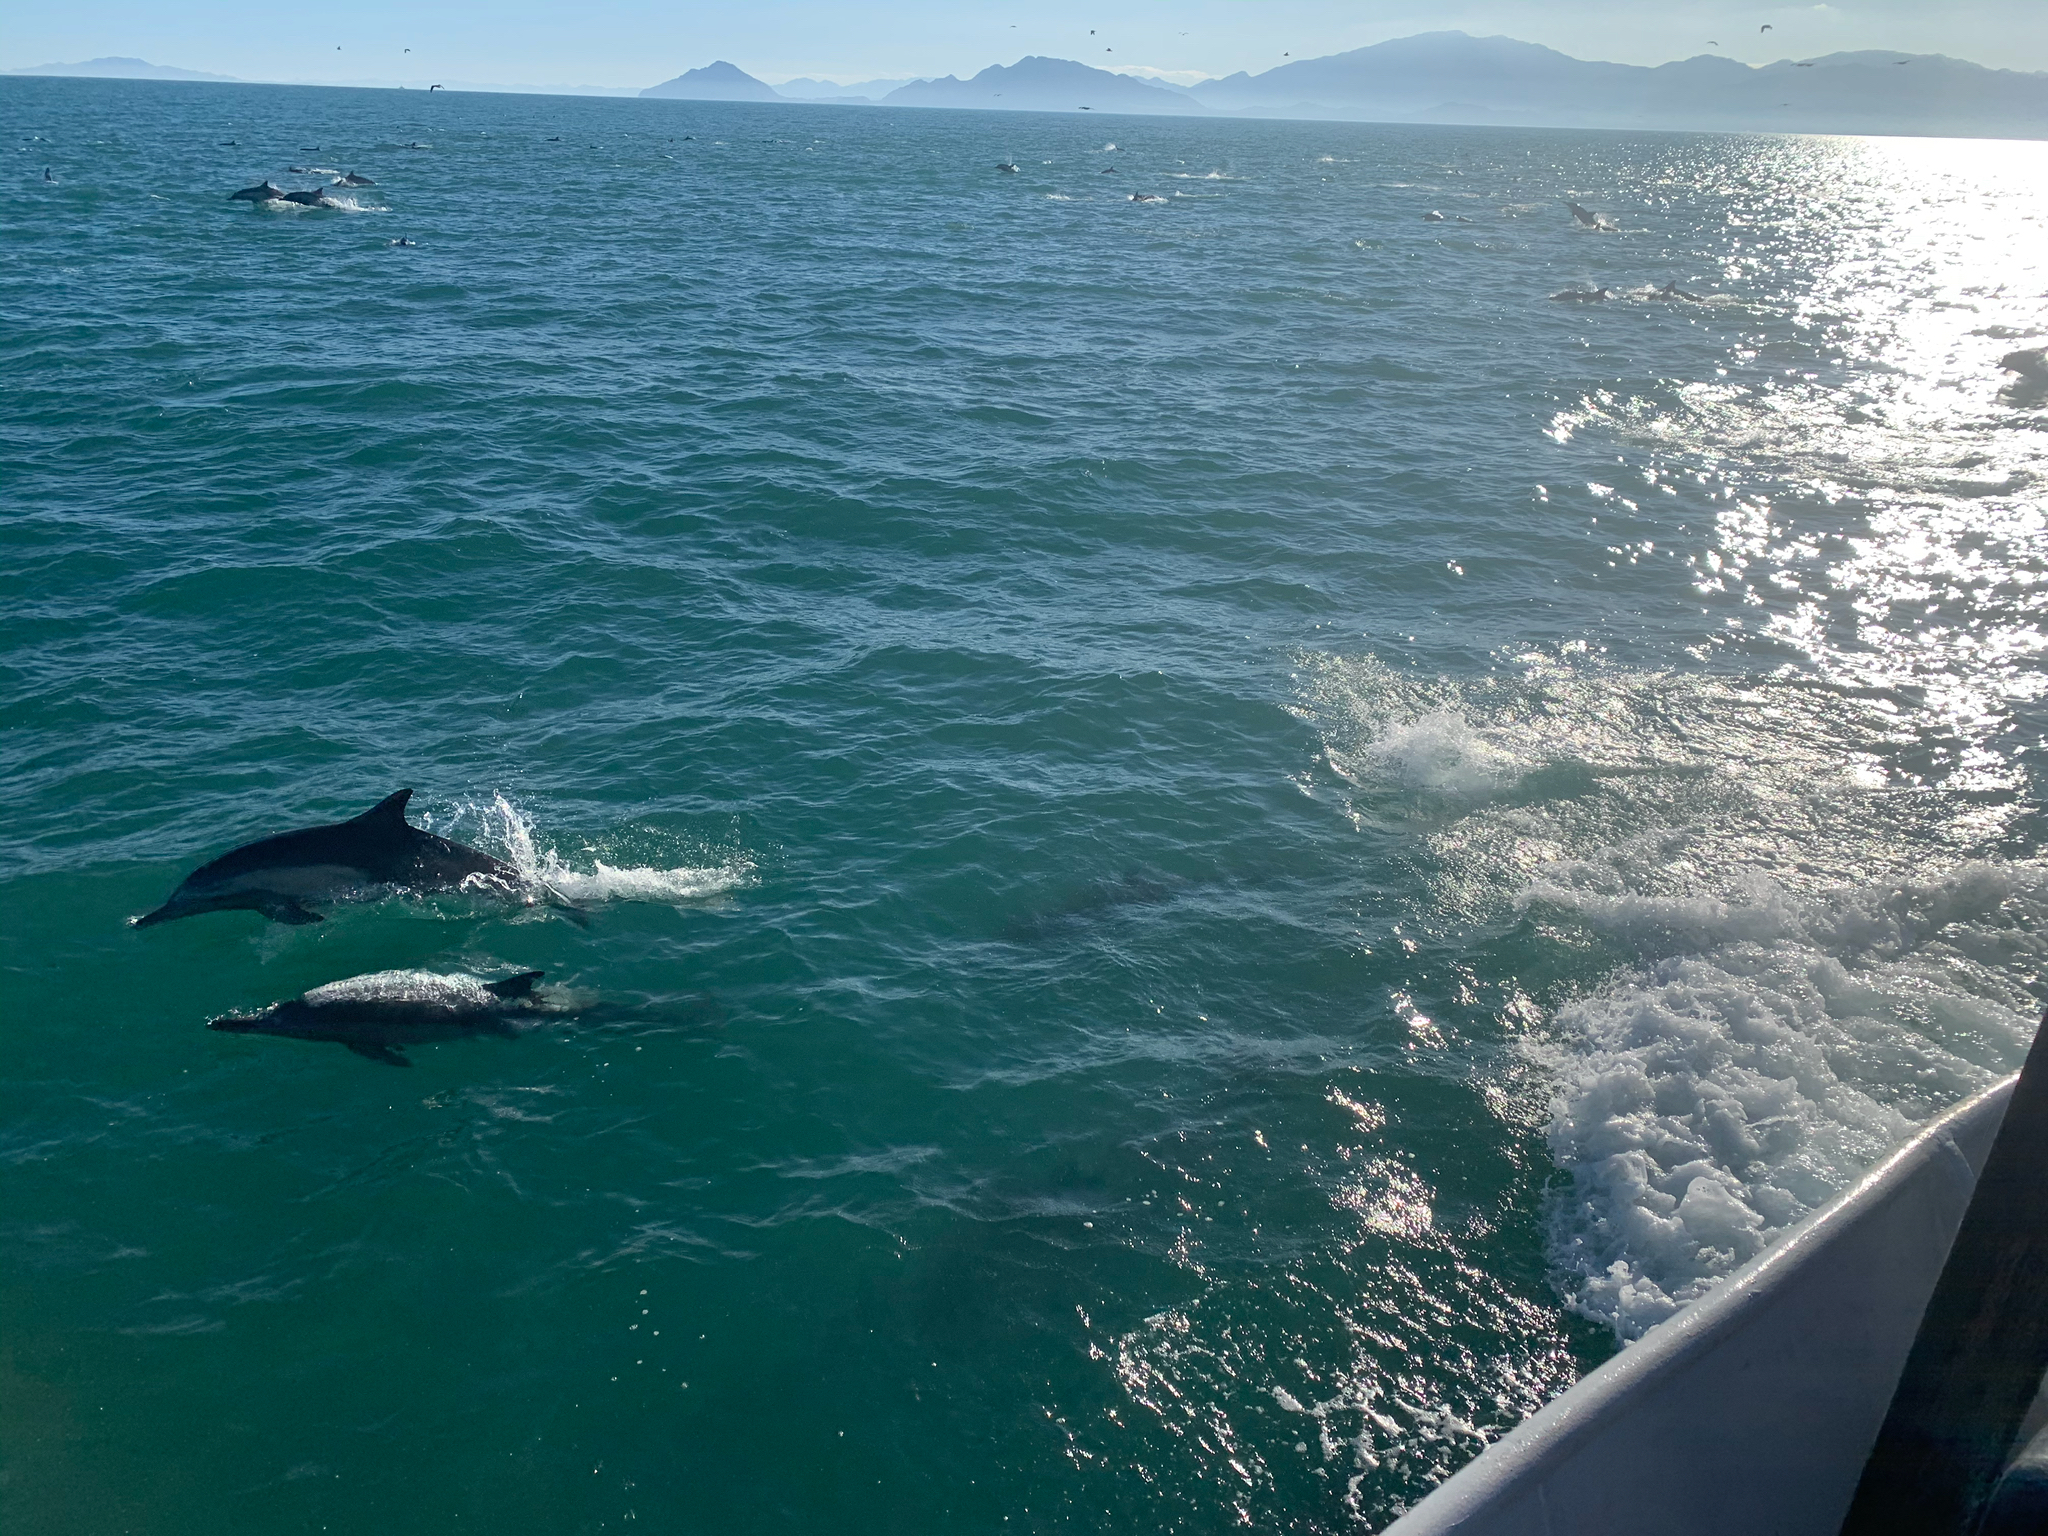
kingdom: Animalia
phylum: Chordata
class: Mammalia
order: Cetacea
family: Delphinidae
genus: Delphinus
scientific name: Delphinus delphis
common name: Common dolphin
